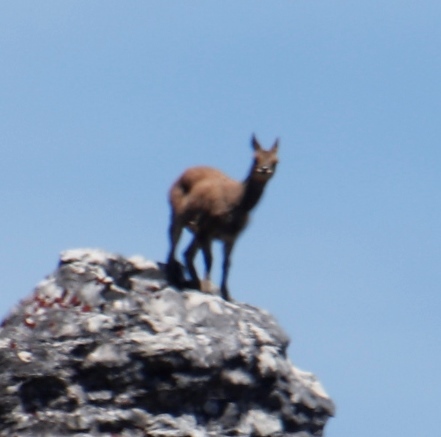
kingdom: Animalia
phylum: Chordata
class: Mammalia
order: Artiodactyla
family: Bovidae
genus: Oreotragus
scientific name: Oreotragus oreotragus
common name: Klipspringer
